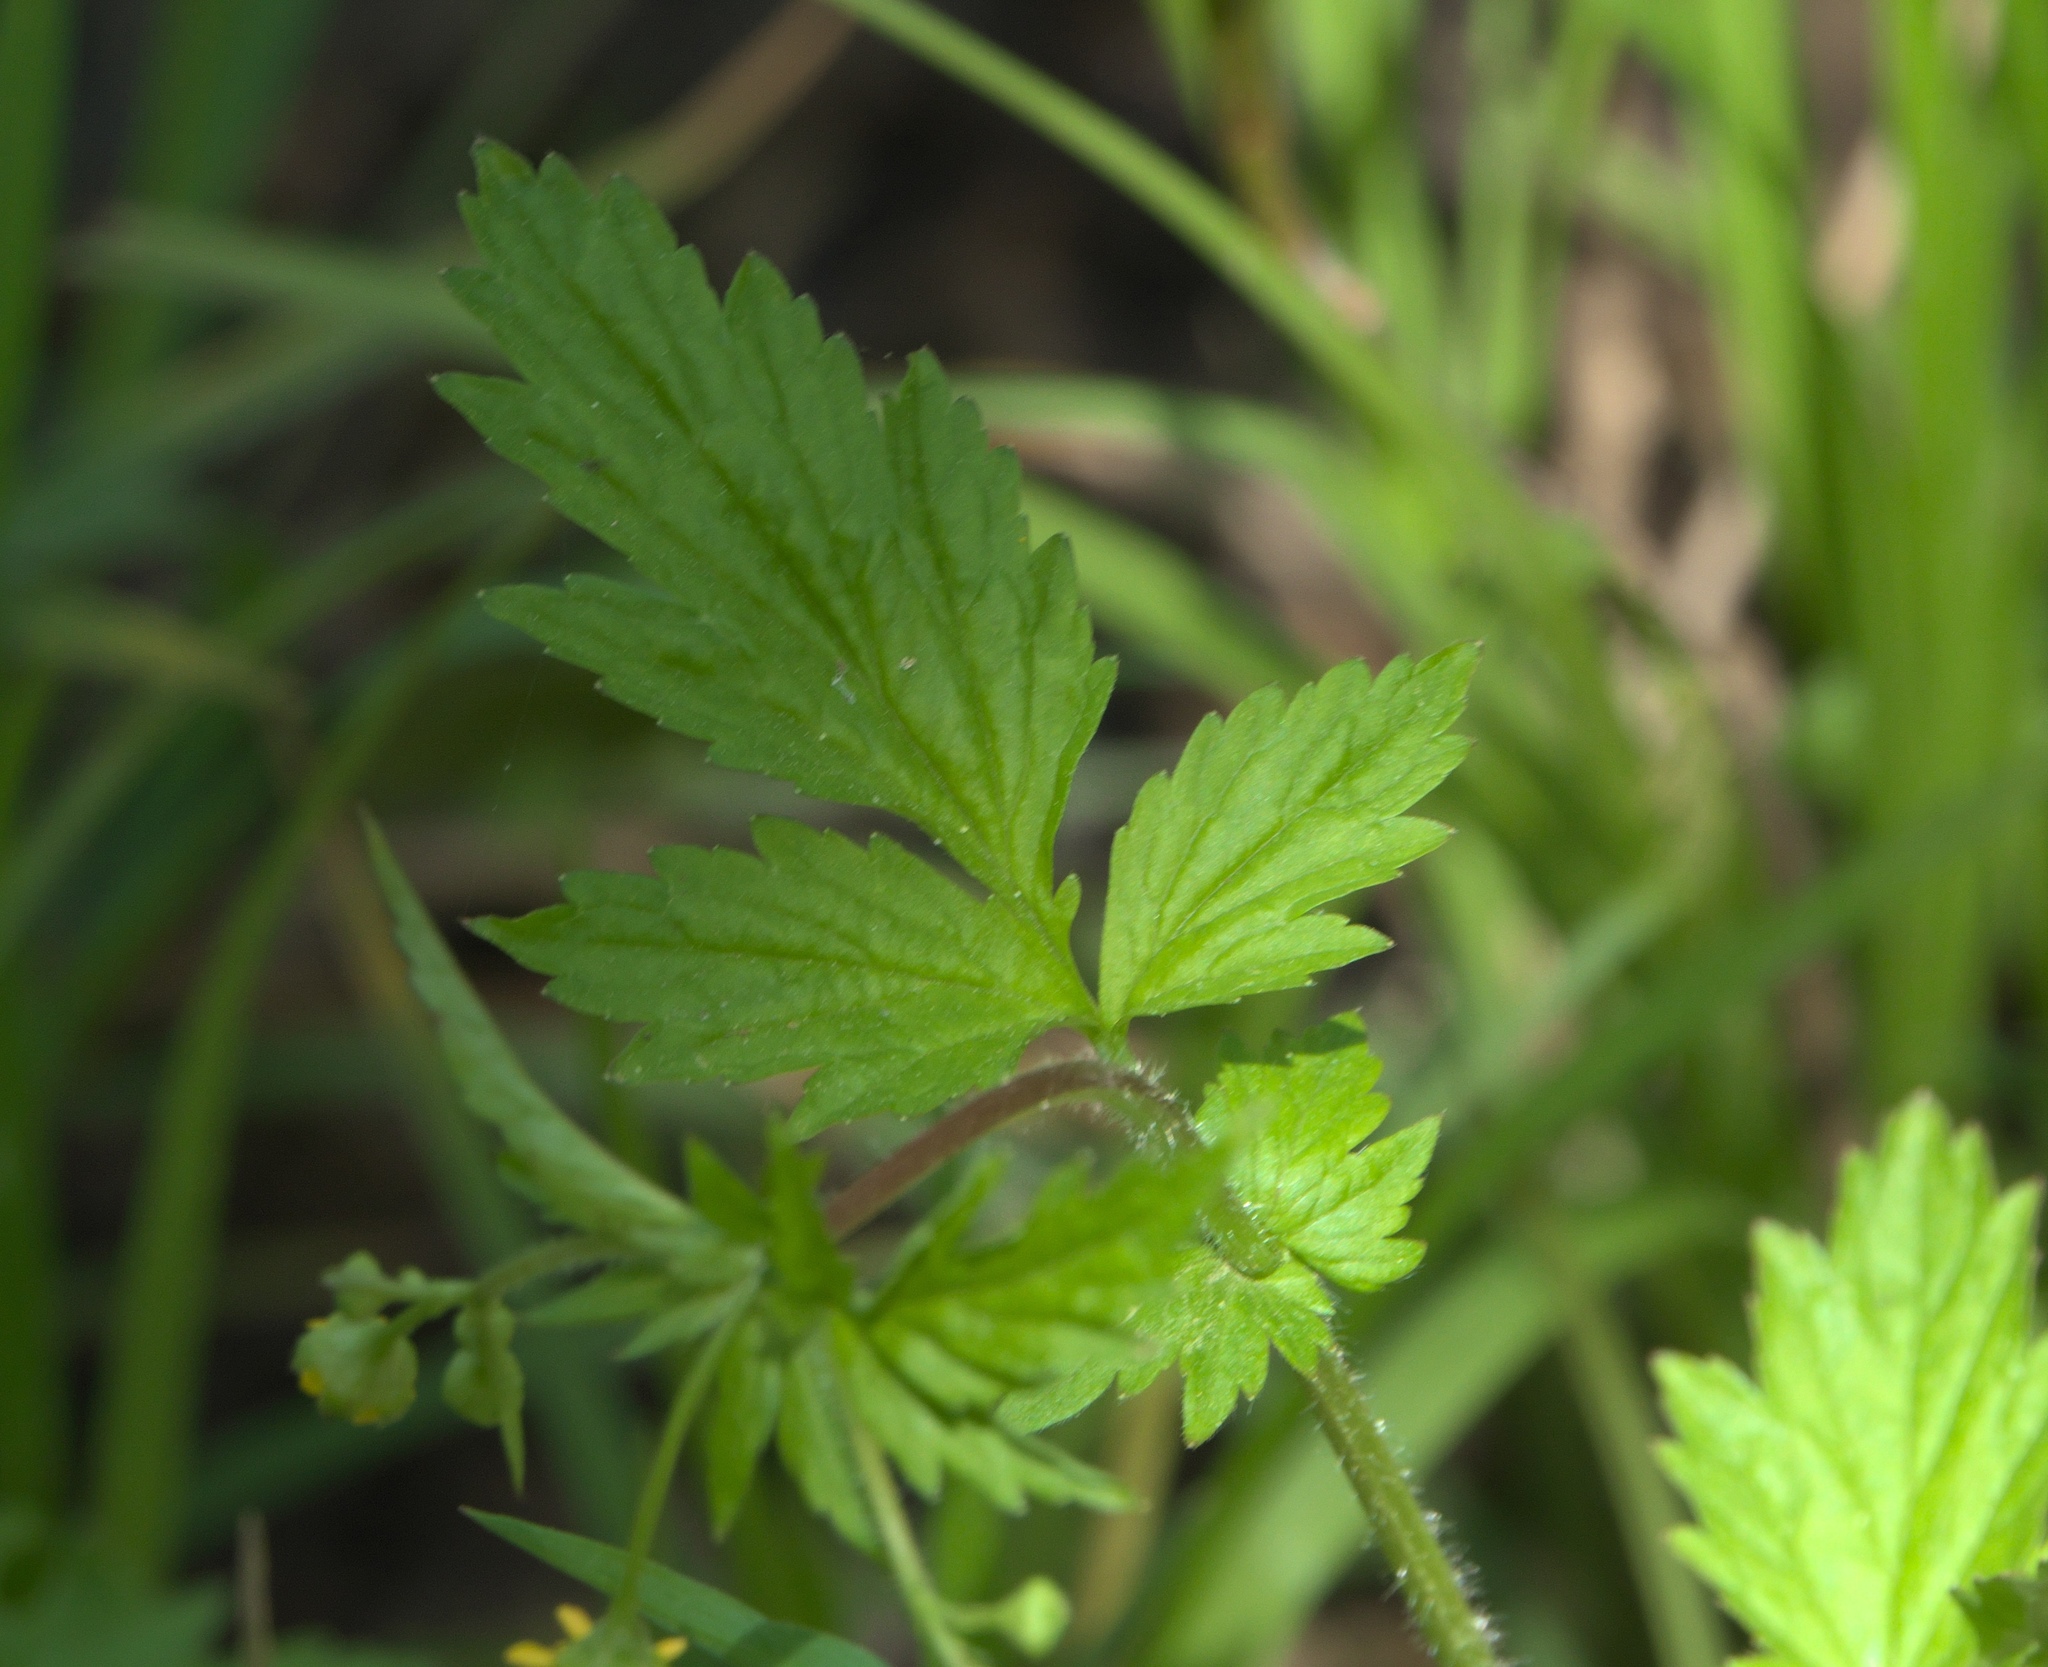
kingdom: Plantae
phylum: Tracheophyta
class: Magnoliopsida
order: Rosales
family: Rosaceae
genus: Geum
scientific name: Geum vernum
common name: Spring avens
